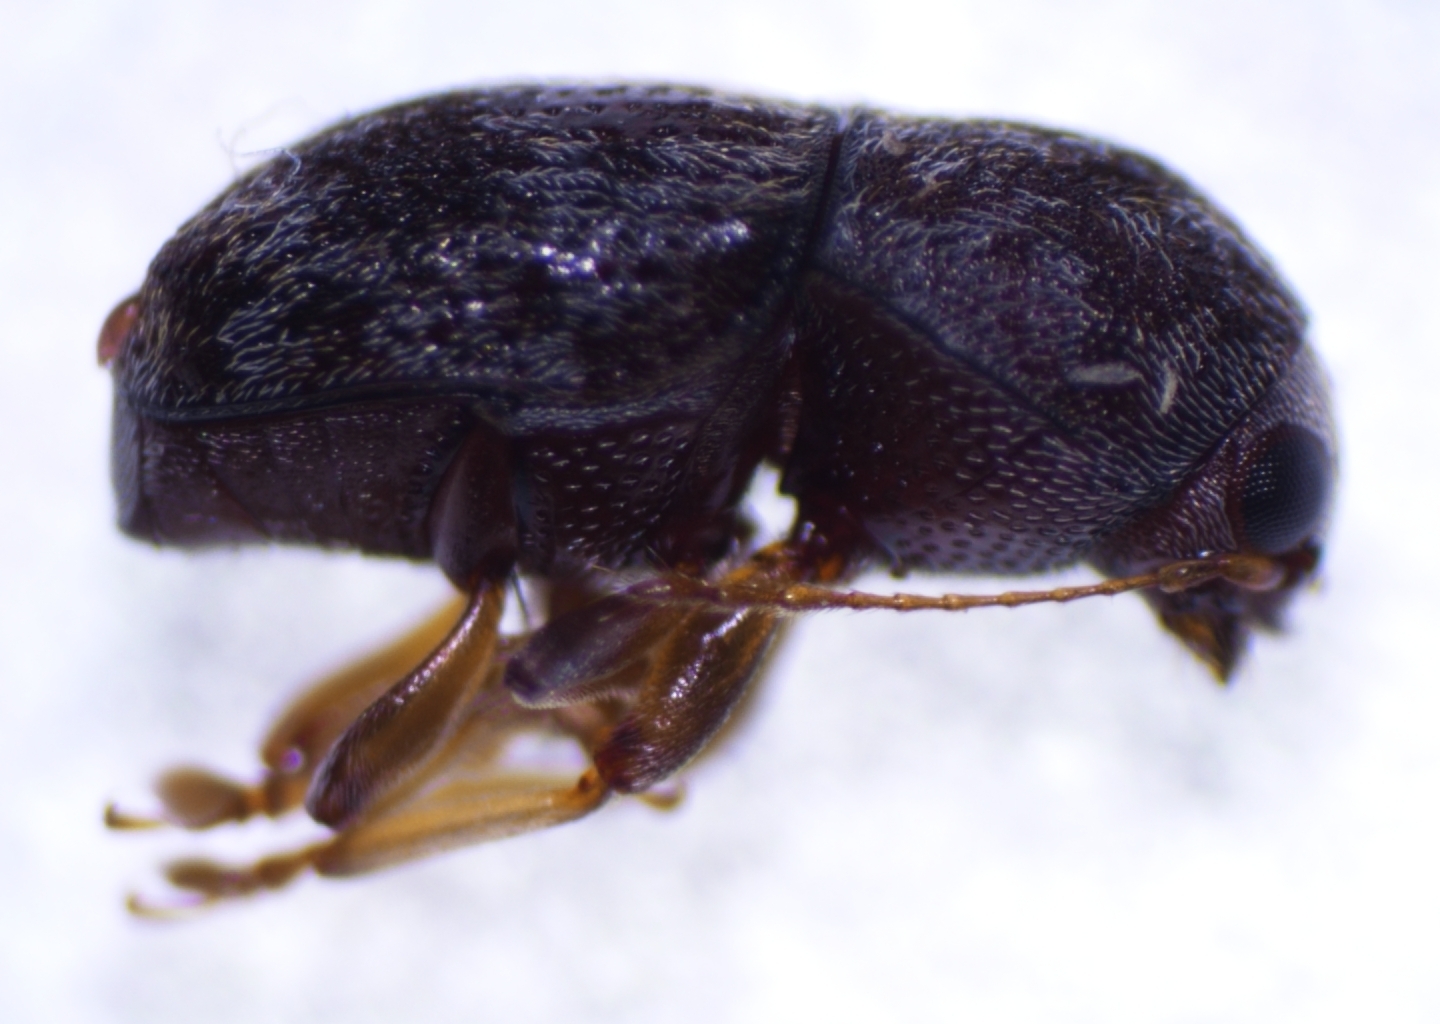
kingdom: Animalia
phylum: Arthropoda
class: Insecta
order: Coleoptera
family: Anthribidae
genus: Stenorhis
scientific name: Stenorhis ampedus
